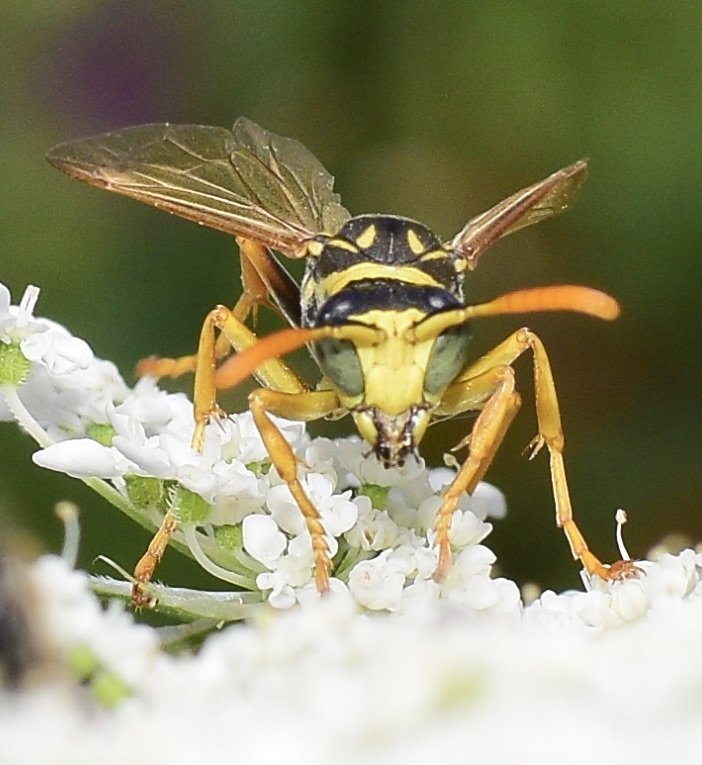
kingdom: Animalia
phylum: Arthropoda
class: Insecta
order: Hymenoptera
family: Eumenidae
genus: Polistes
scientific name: Polistes dominula
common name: Paper wasp
